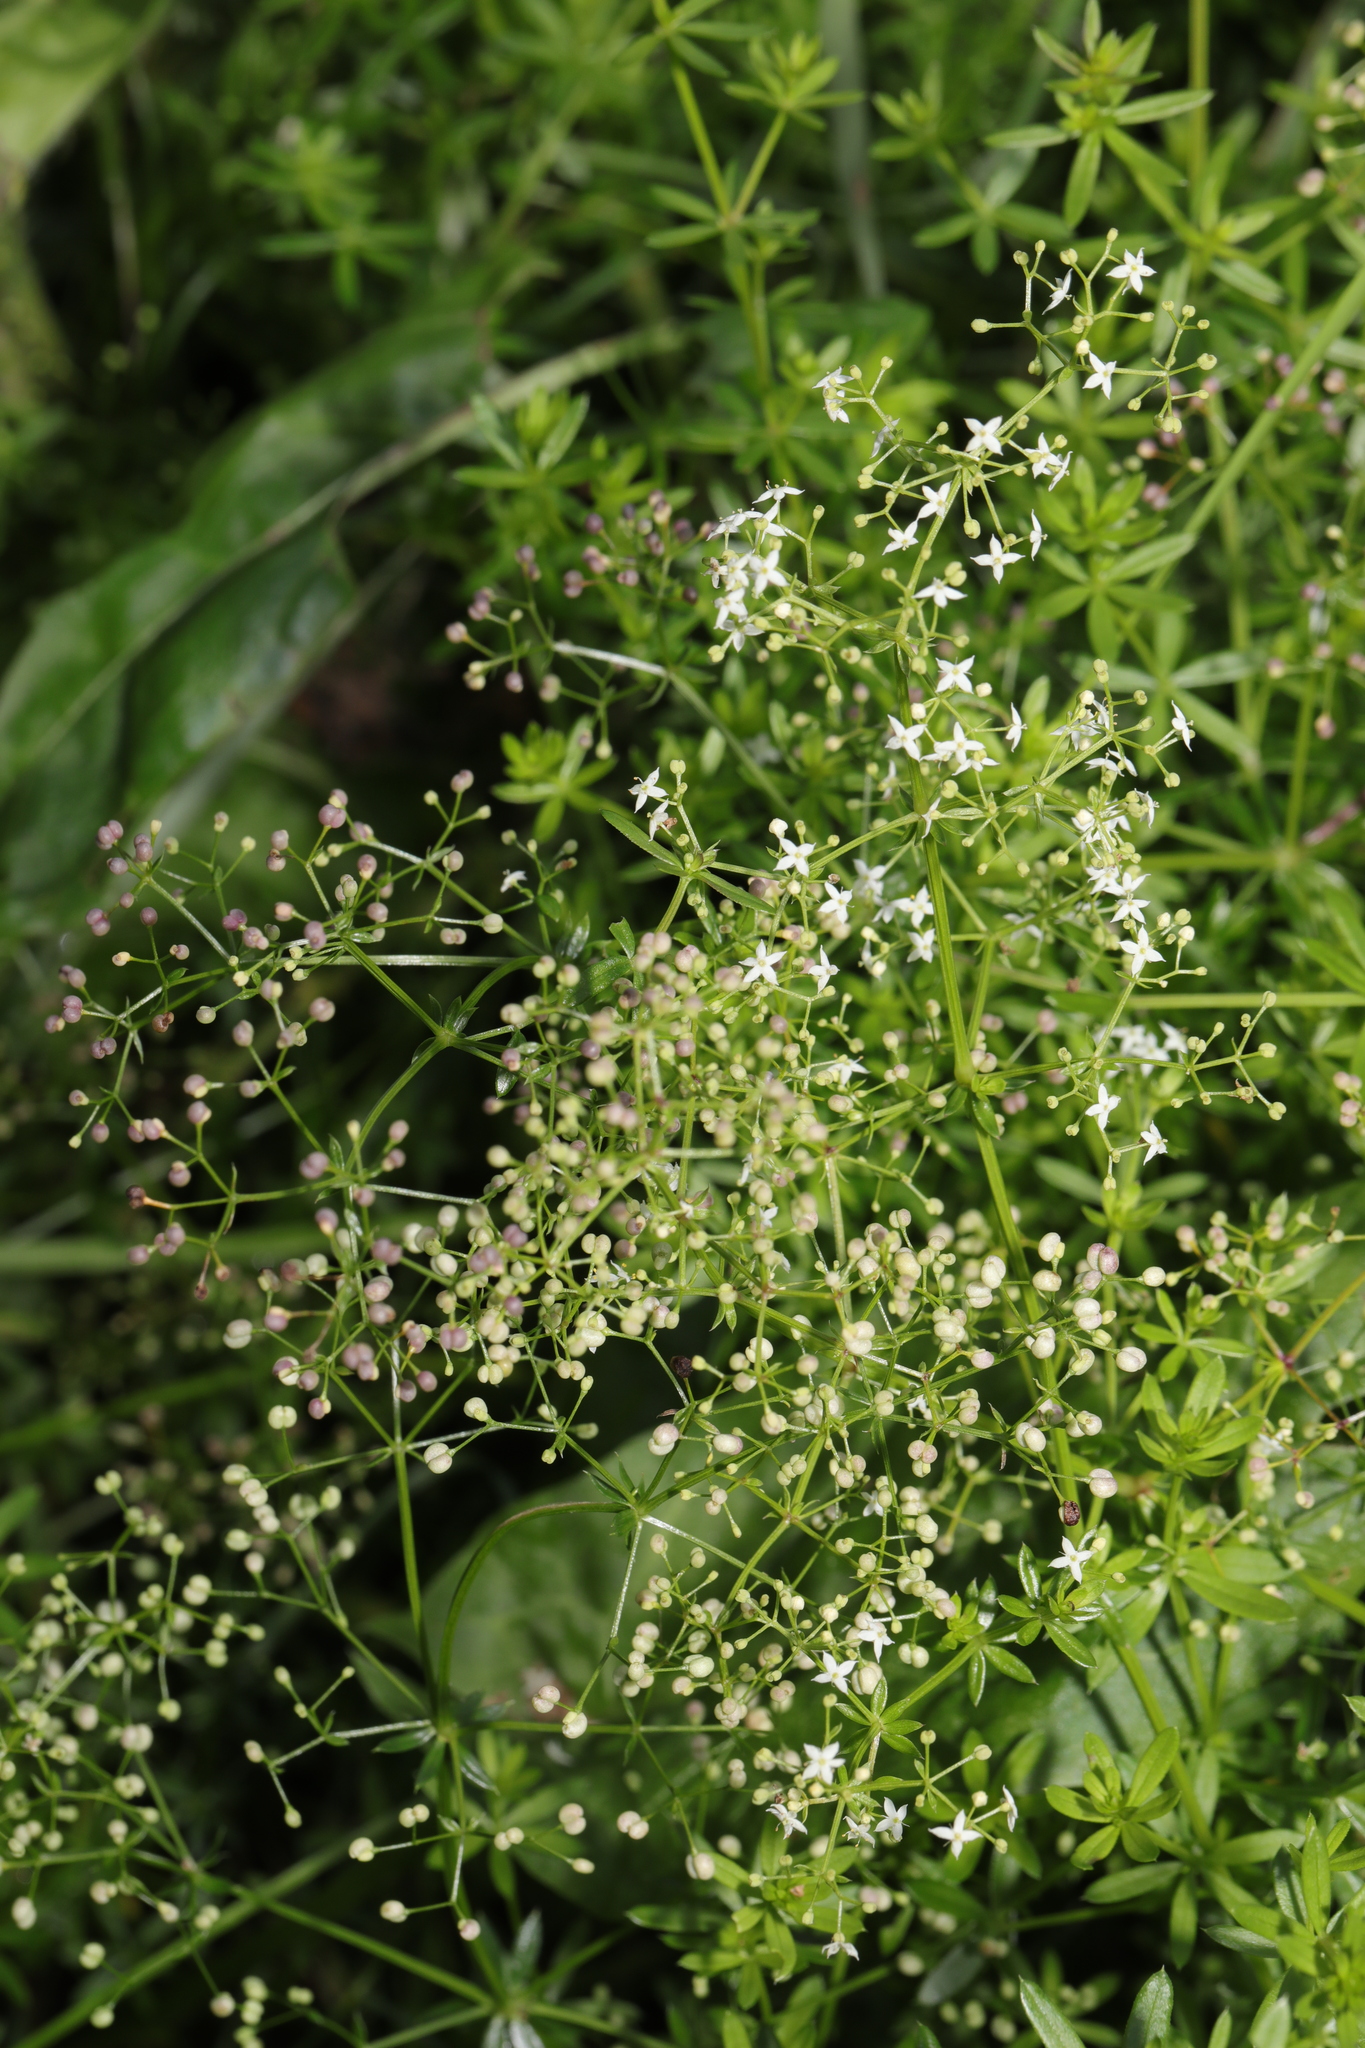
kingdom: Plantae
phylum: Tracheophyta
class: Magnoliopsida
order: Gentianales
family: Rubiaceae
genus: Galium
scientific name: Galium album
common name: White bedstraw
